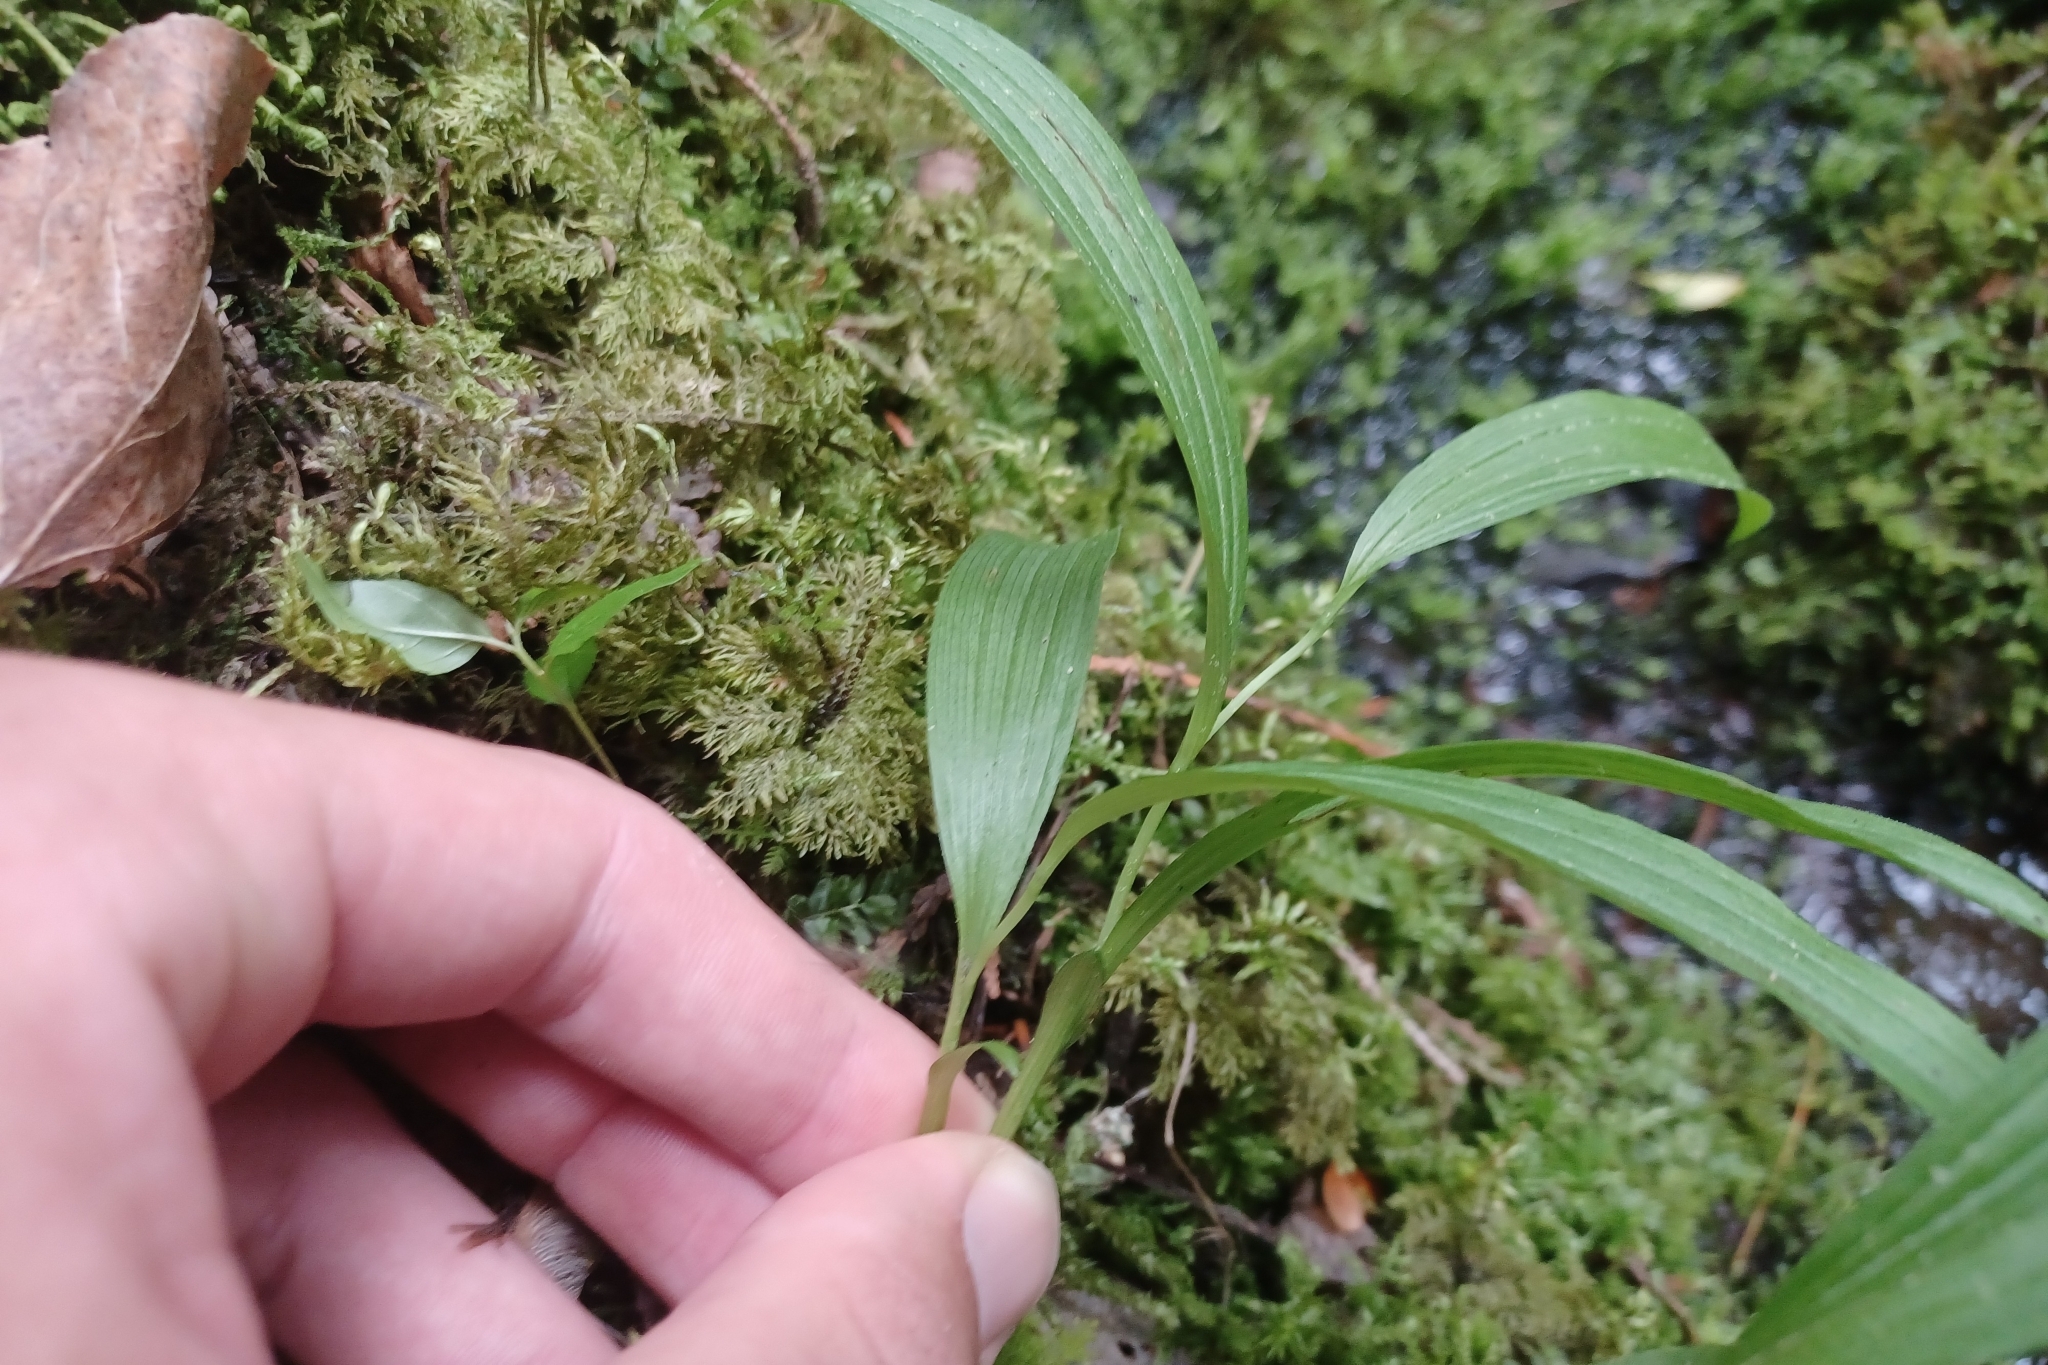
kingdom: Plantae
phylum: Tracheophyta
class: Liliopsida
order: Asparagales
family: Orchidaceae
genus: Cypripedium
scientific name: Cypripedium arietinum
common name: Ram's-head
